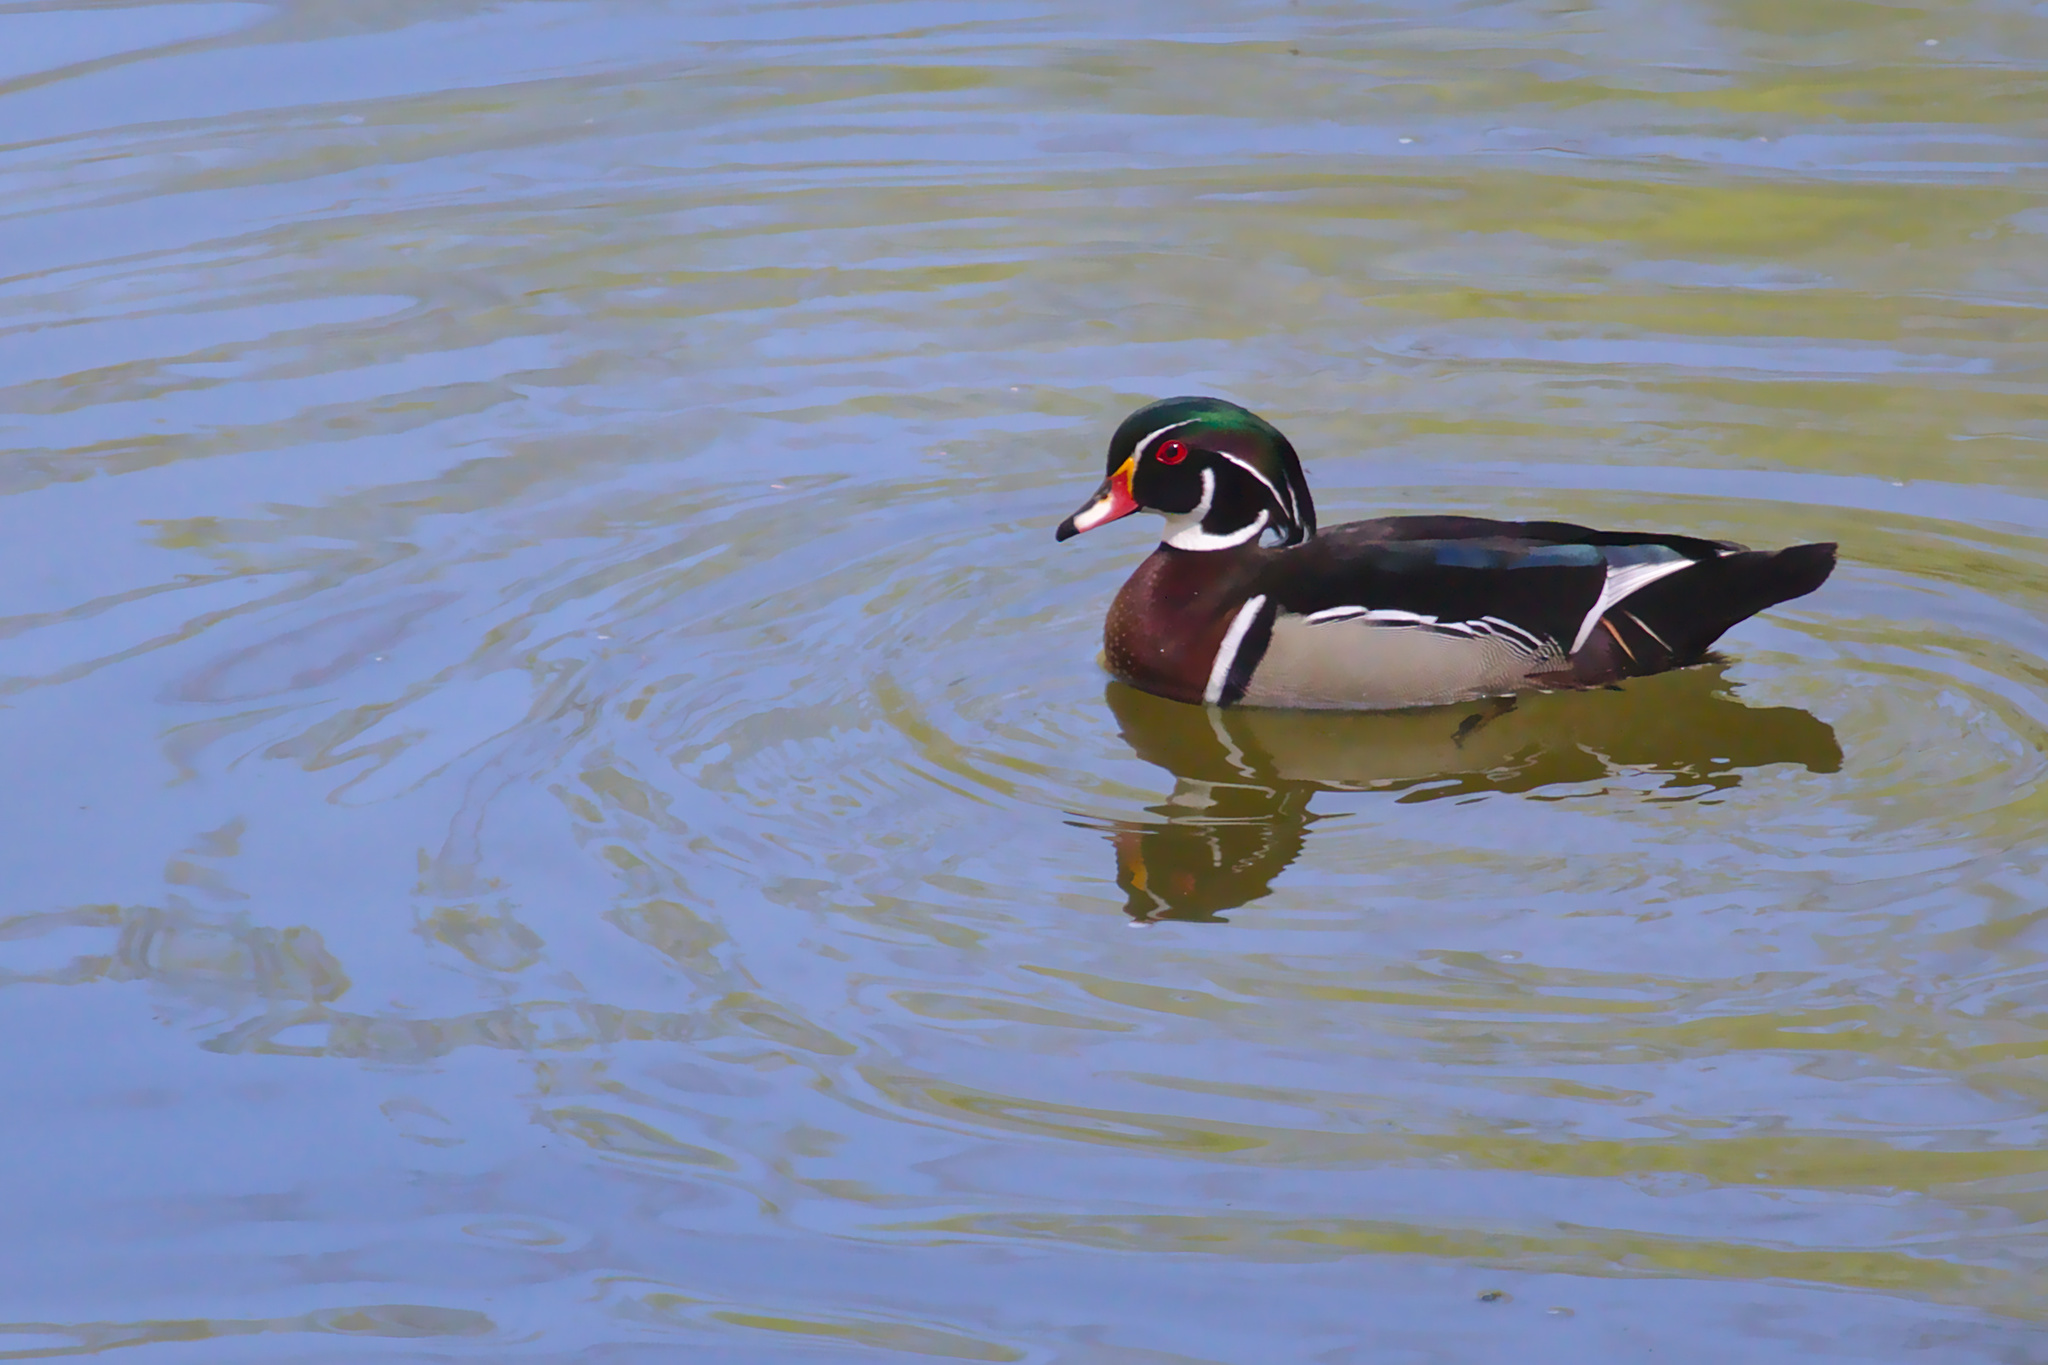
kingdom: Animalia
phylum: Chordata
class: Aves
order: Anseriformes
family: Anatidae
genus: Aix
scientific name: Aix sponsa
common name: Wood duck
